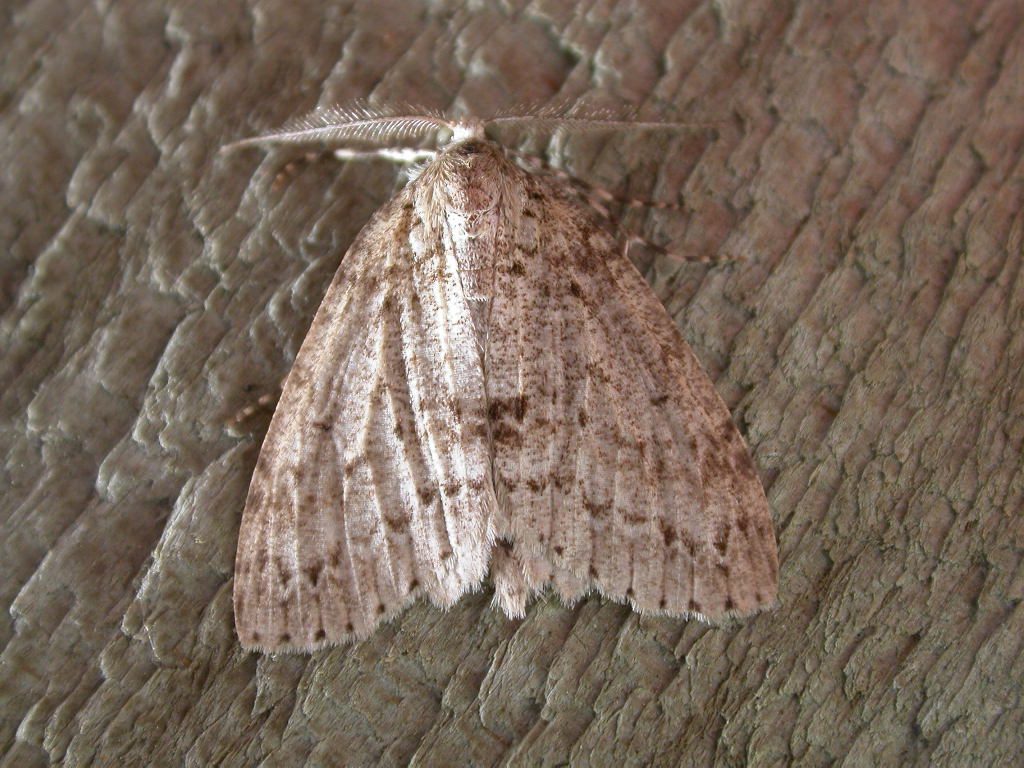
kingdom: Animalia
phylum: Arthropoda
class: Insecta
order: Lepidoptera
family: Geometridae
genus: Pseudocoremia
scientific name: Pseudocoremia fenerata
